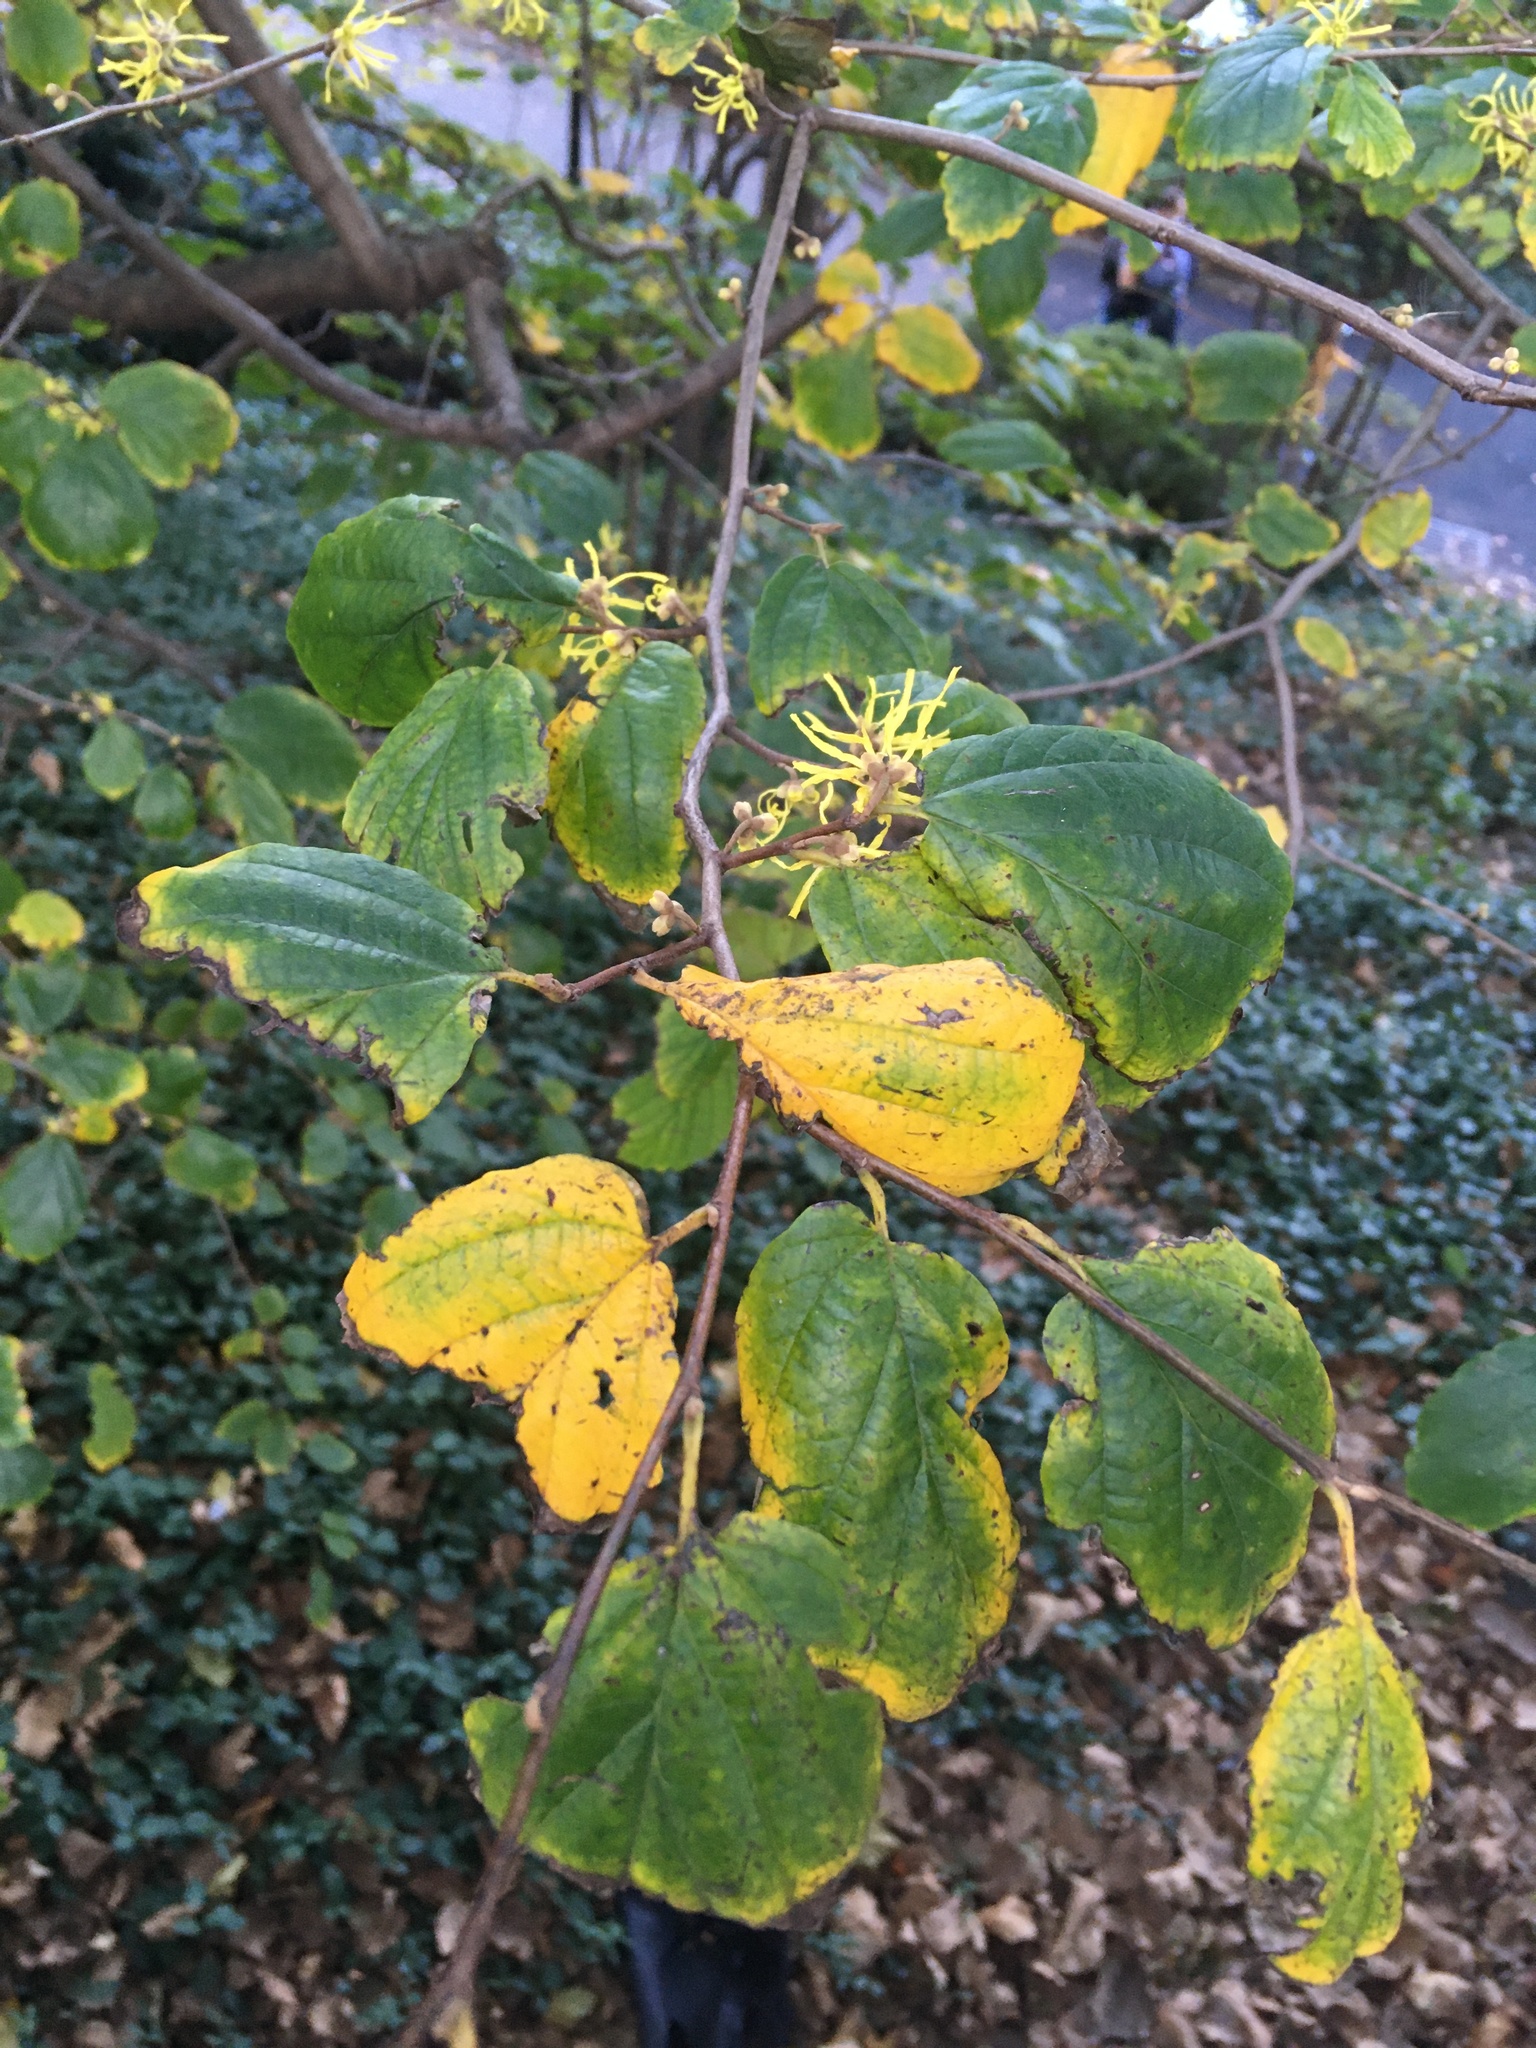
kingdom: Plantae
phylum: Tracheophyta
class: Magnoliopsida
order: Saxifragales
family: Hamamelidaceae
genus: Hamamelis
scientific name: Hamamelis virginiana
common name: Witch-hazel
